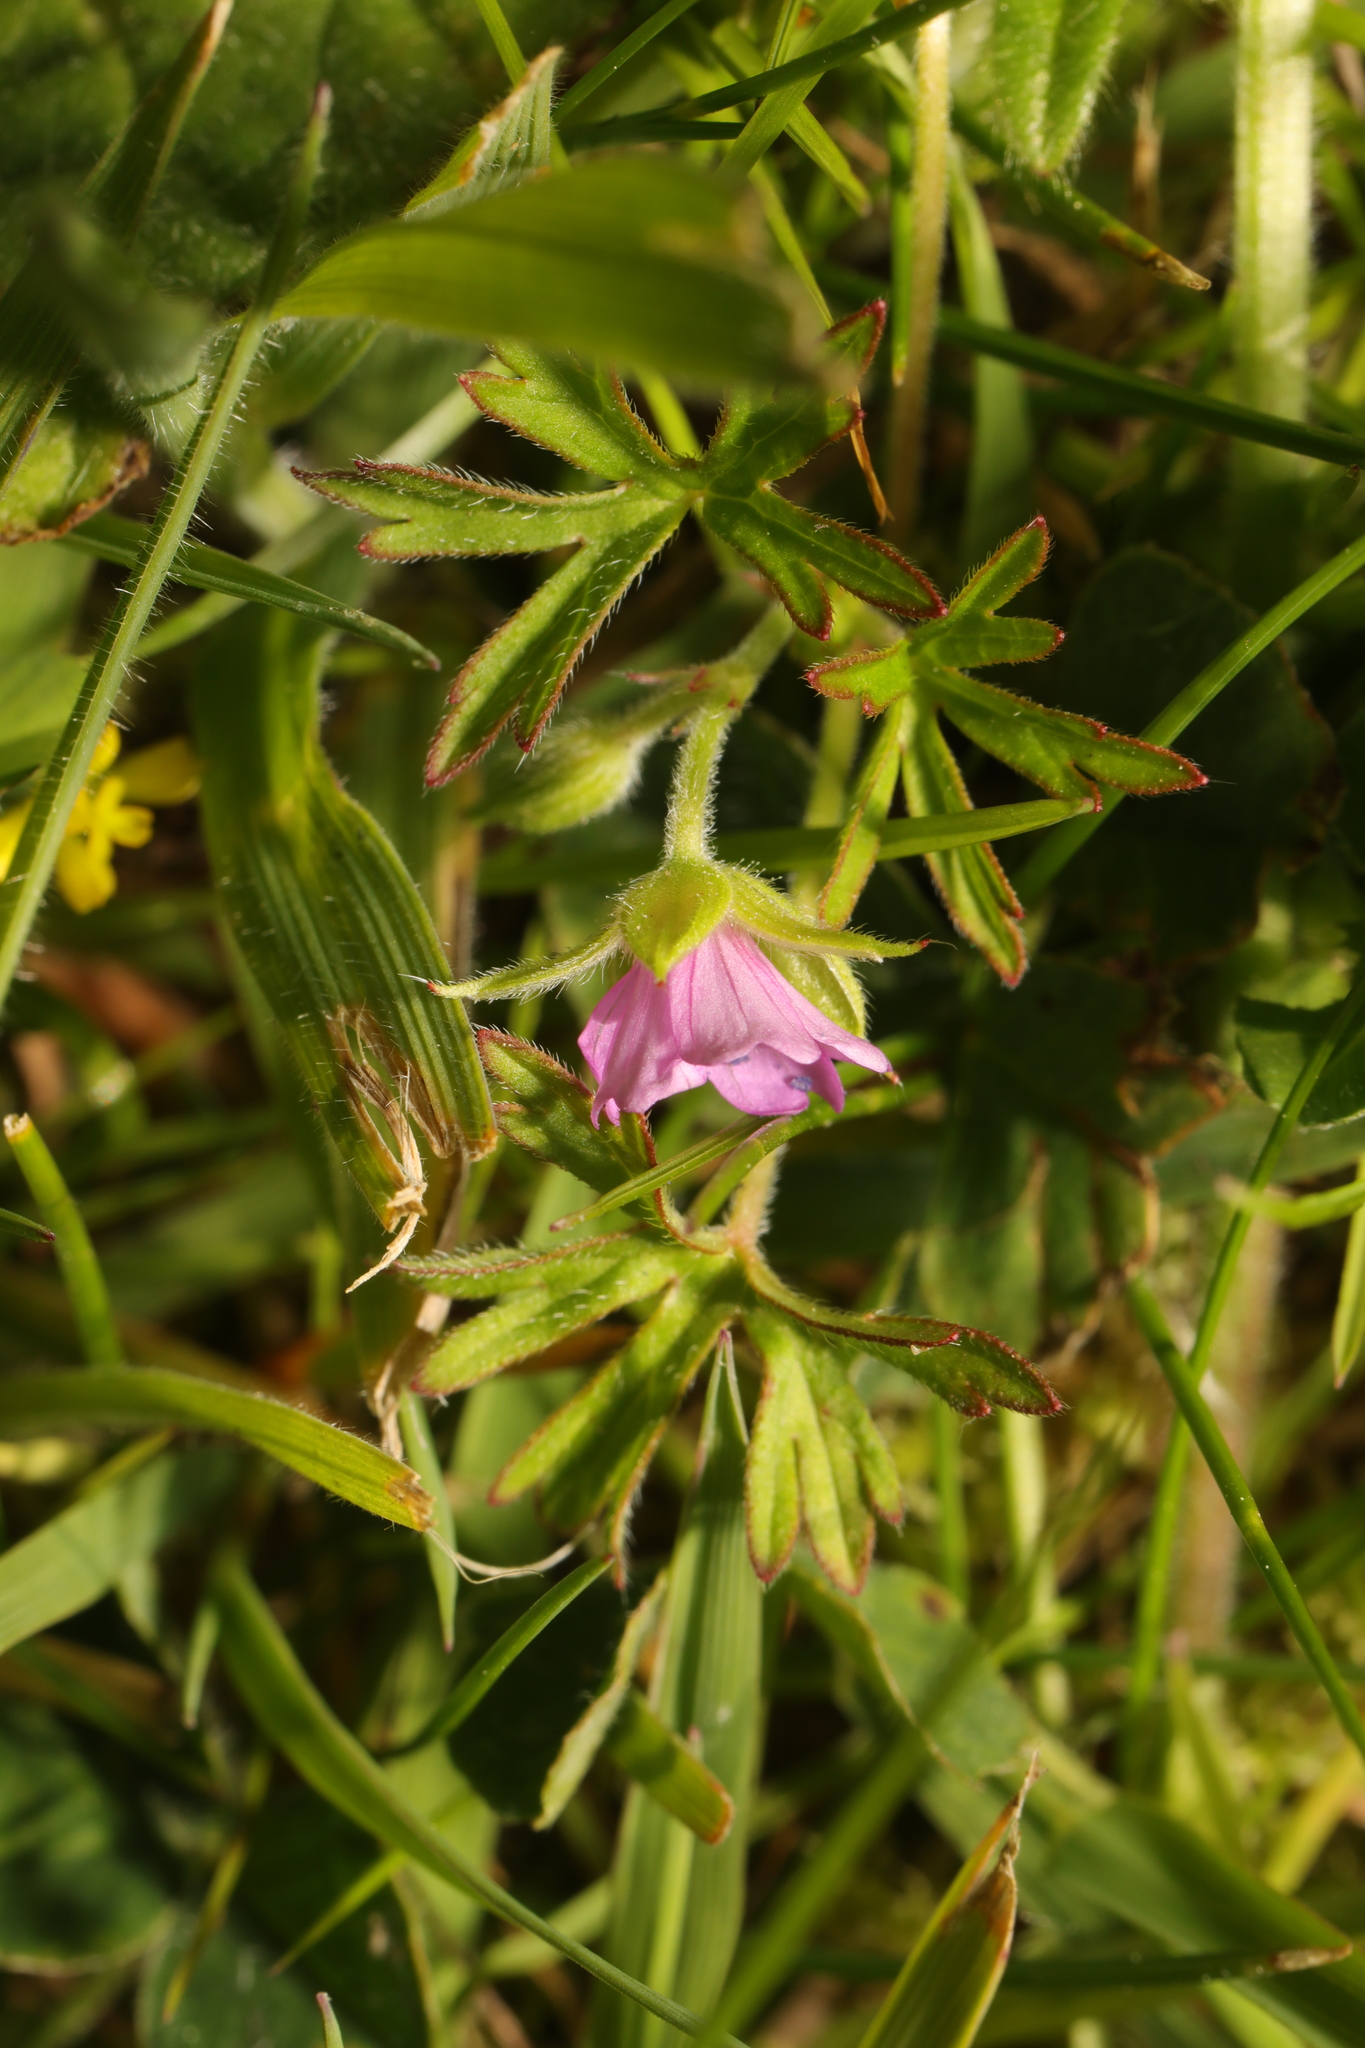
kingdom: Plantae
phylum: Tracheophyta
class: Magnoliopsida
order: Geraniales
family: Geraniaceae
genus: Geranium
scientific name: Geranium dissectum
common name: Cut-leaved crane's-bill
